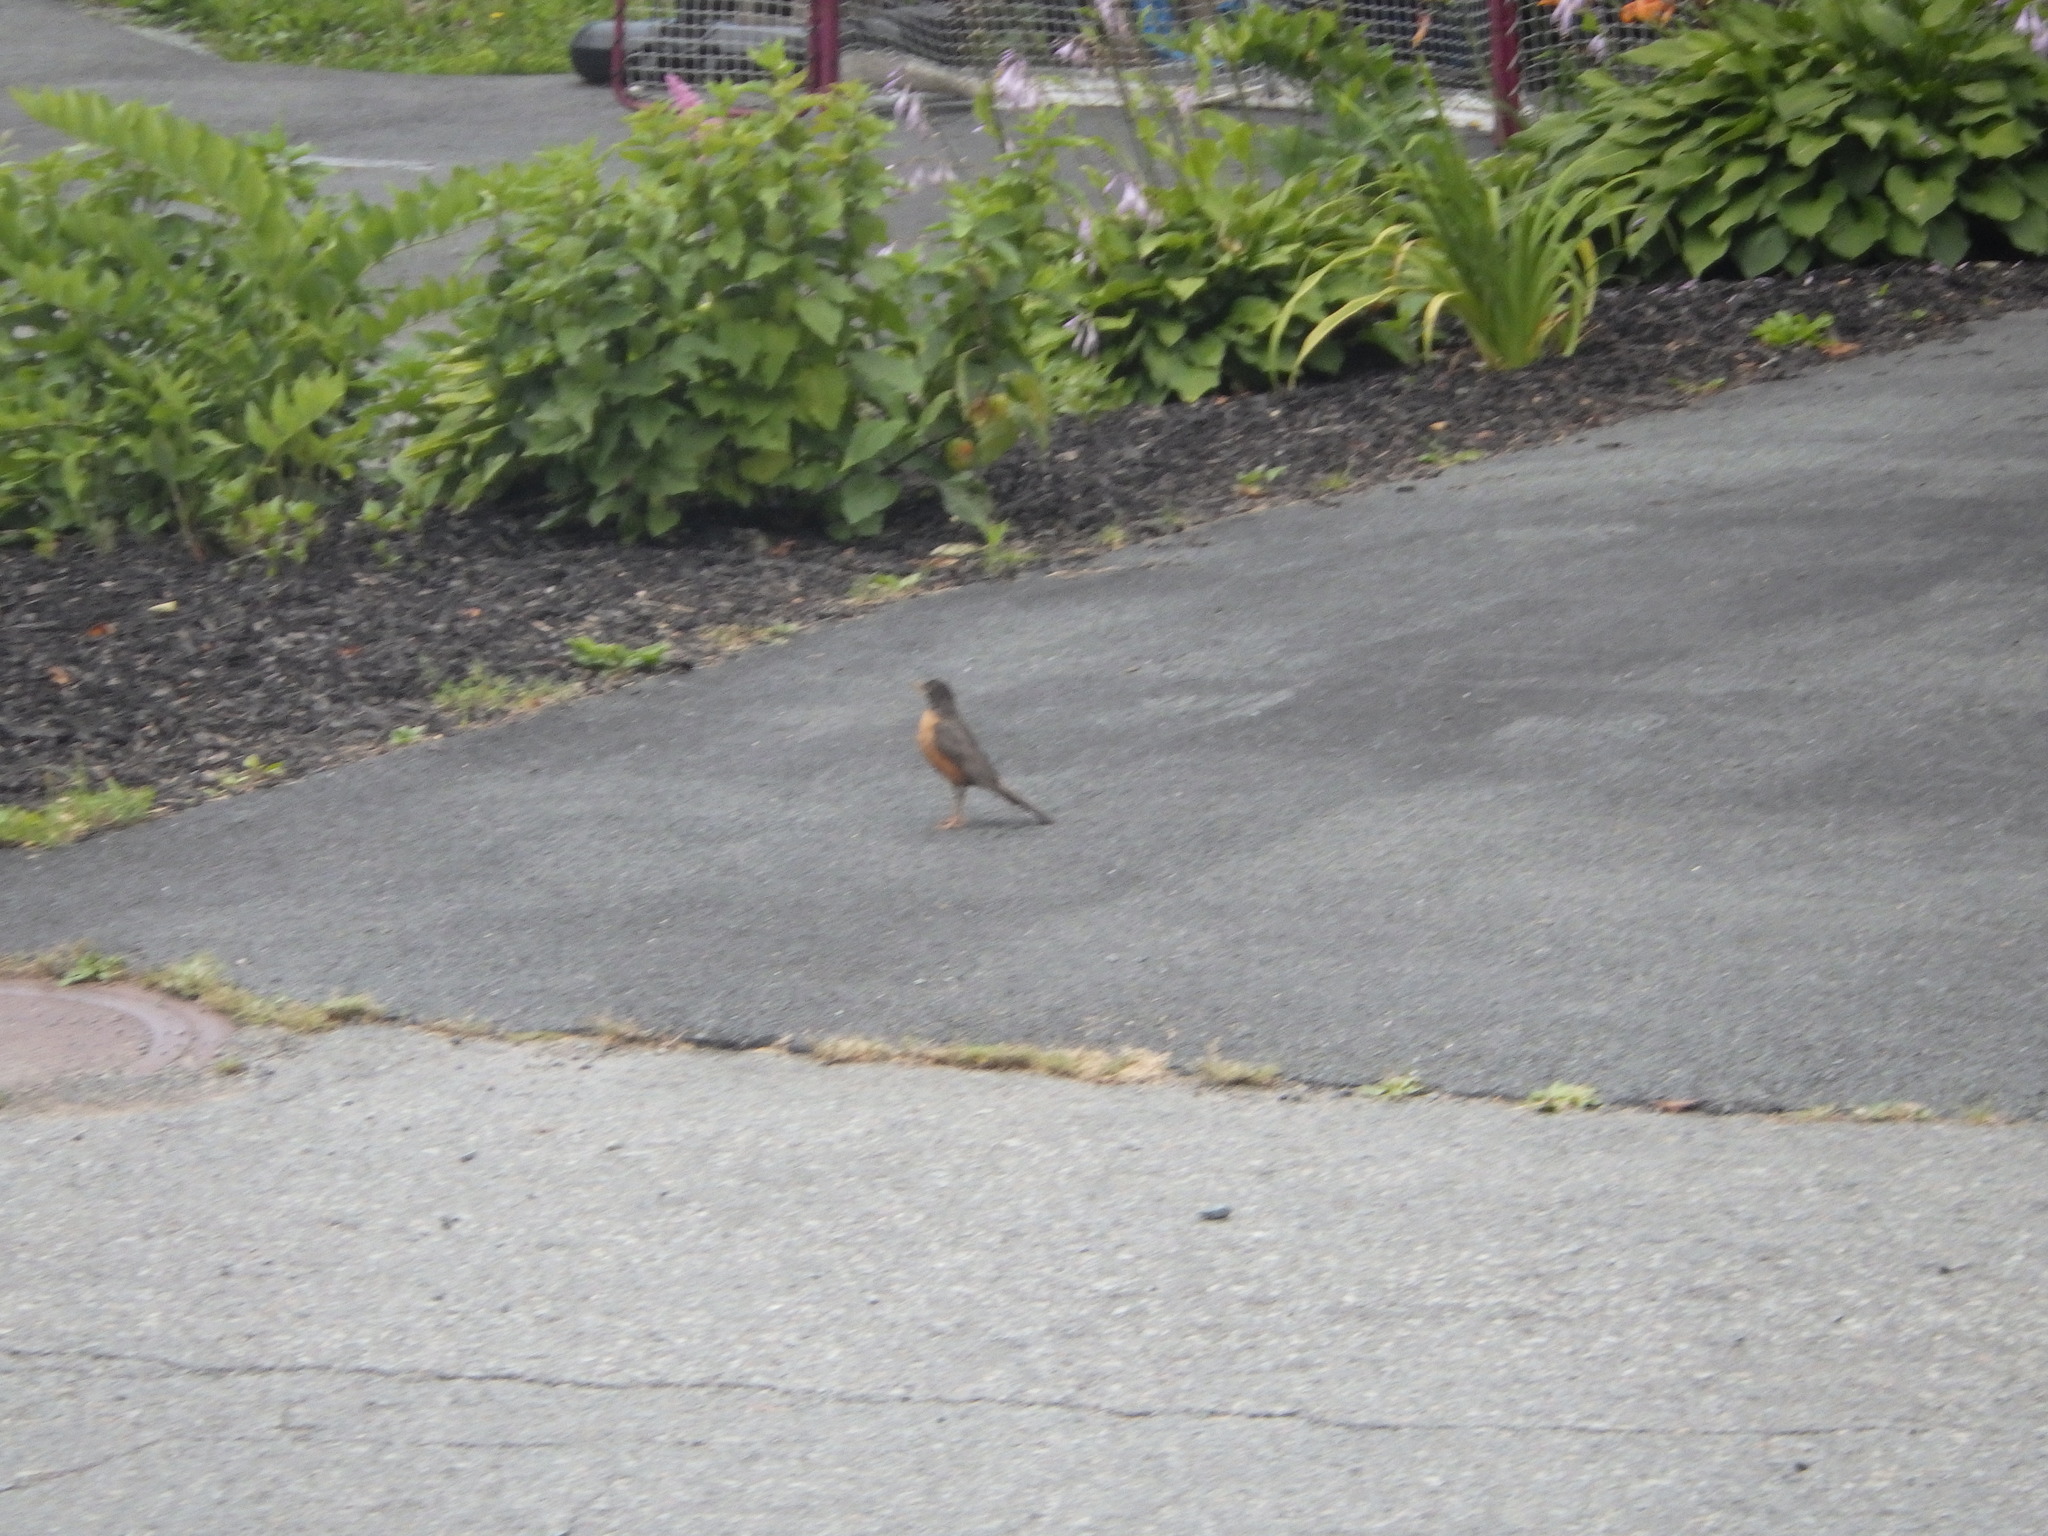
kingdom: Animalia
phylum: Chordata
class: Aves
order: Passeriformes
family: Turdidae
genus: Turdus
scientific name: Turdus migratorius
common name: American robin
